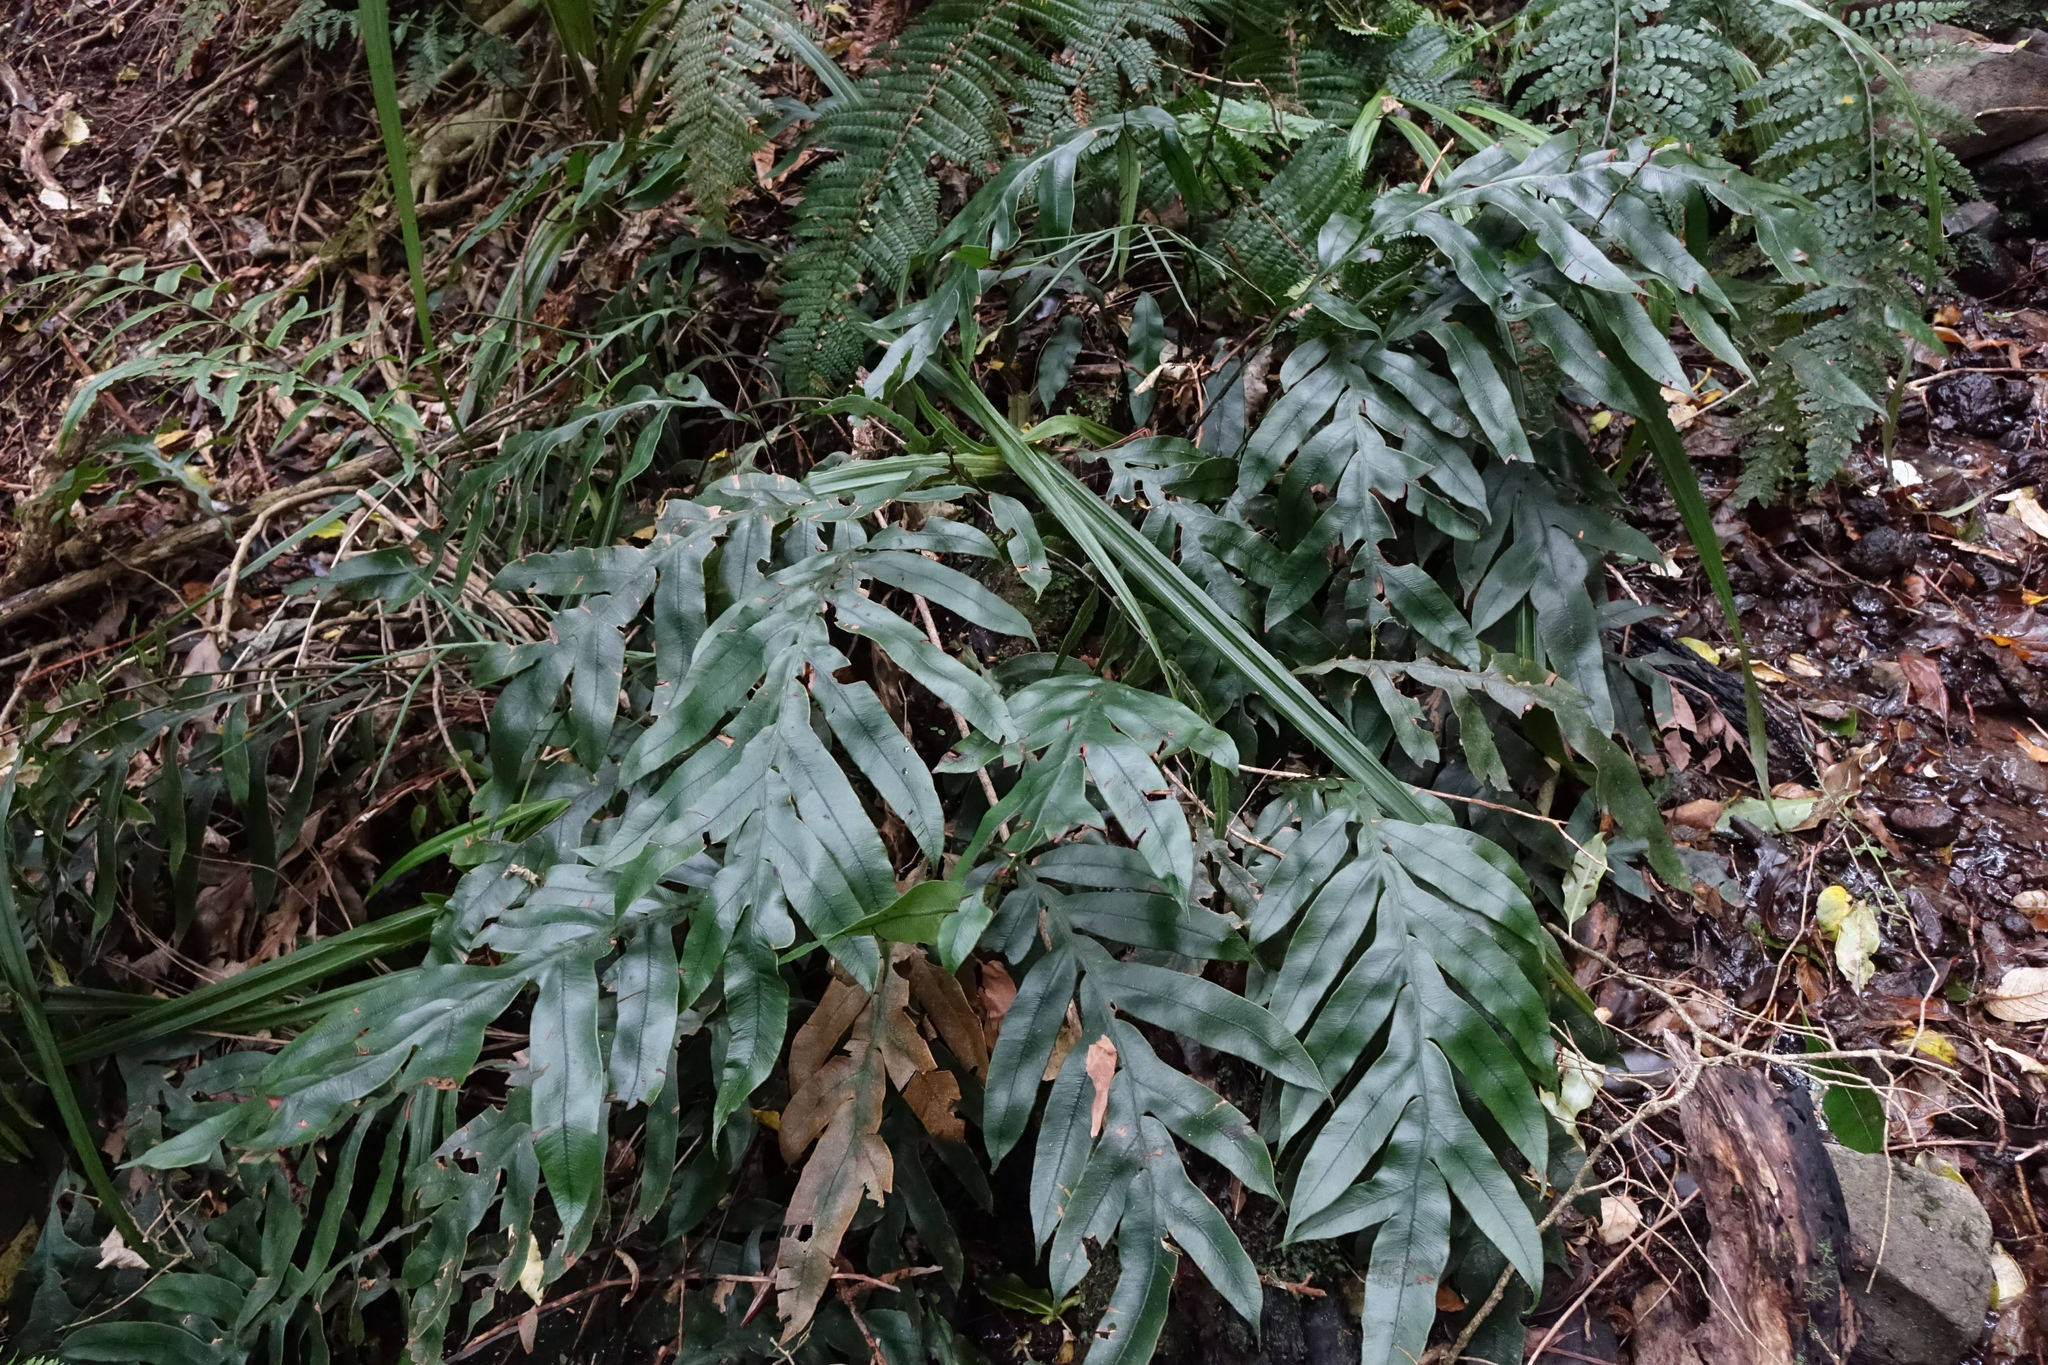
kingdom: Plantae
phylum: Tracheophyta
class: Polypodiopsida
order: Polypodiales
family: Blechnaceae
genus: Austroblechnum
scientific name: Austroblechnum colensoi
